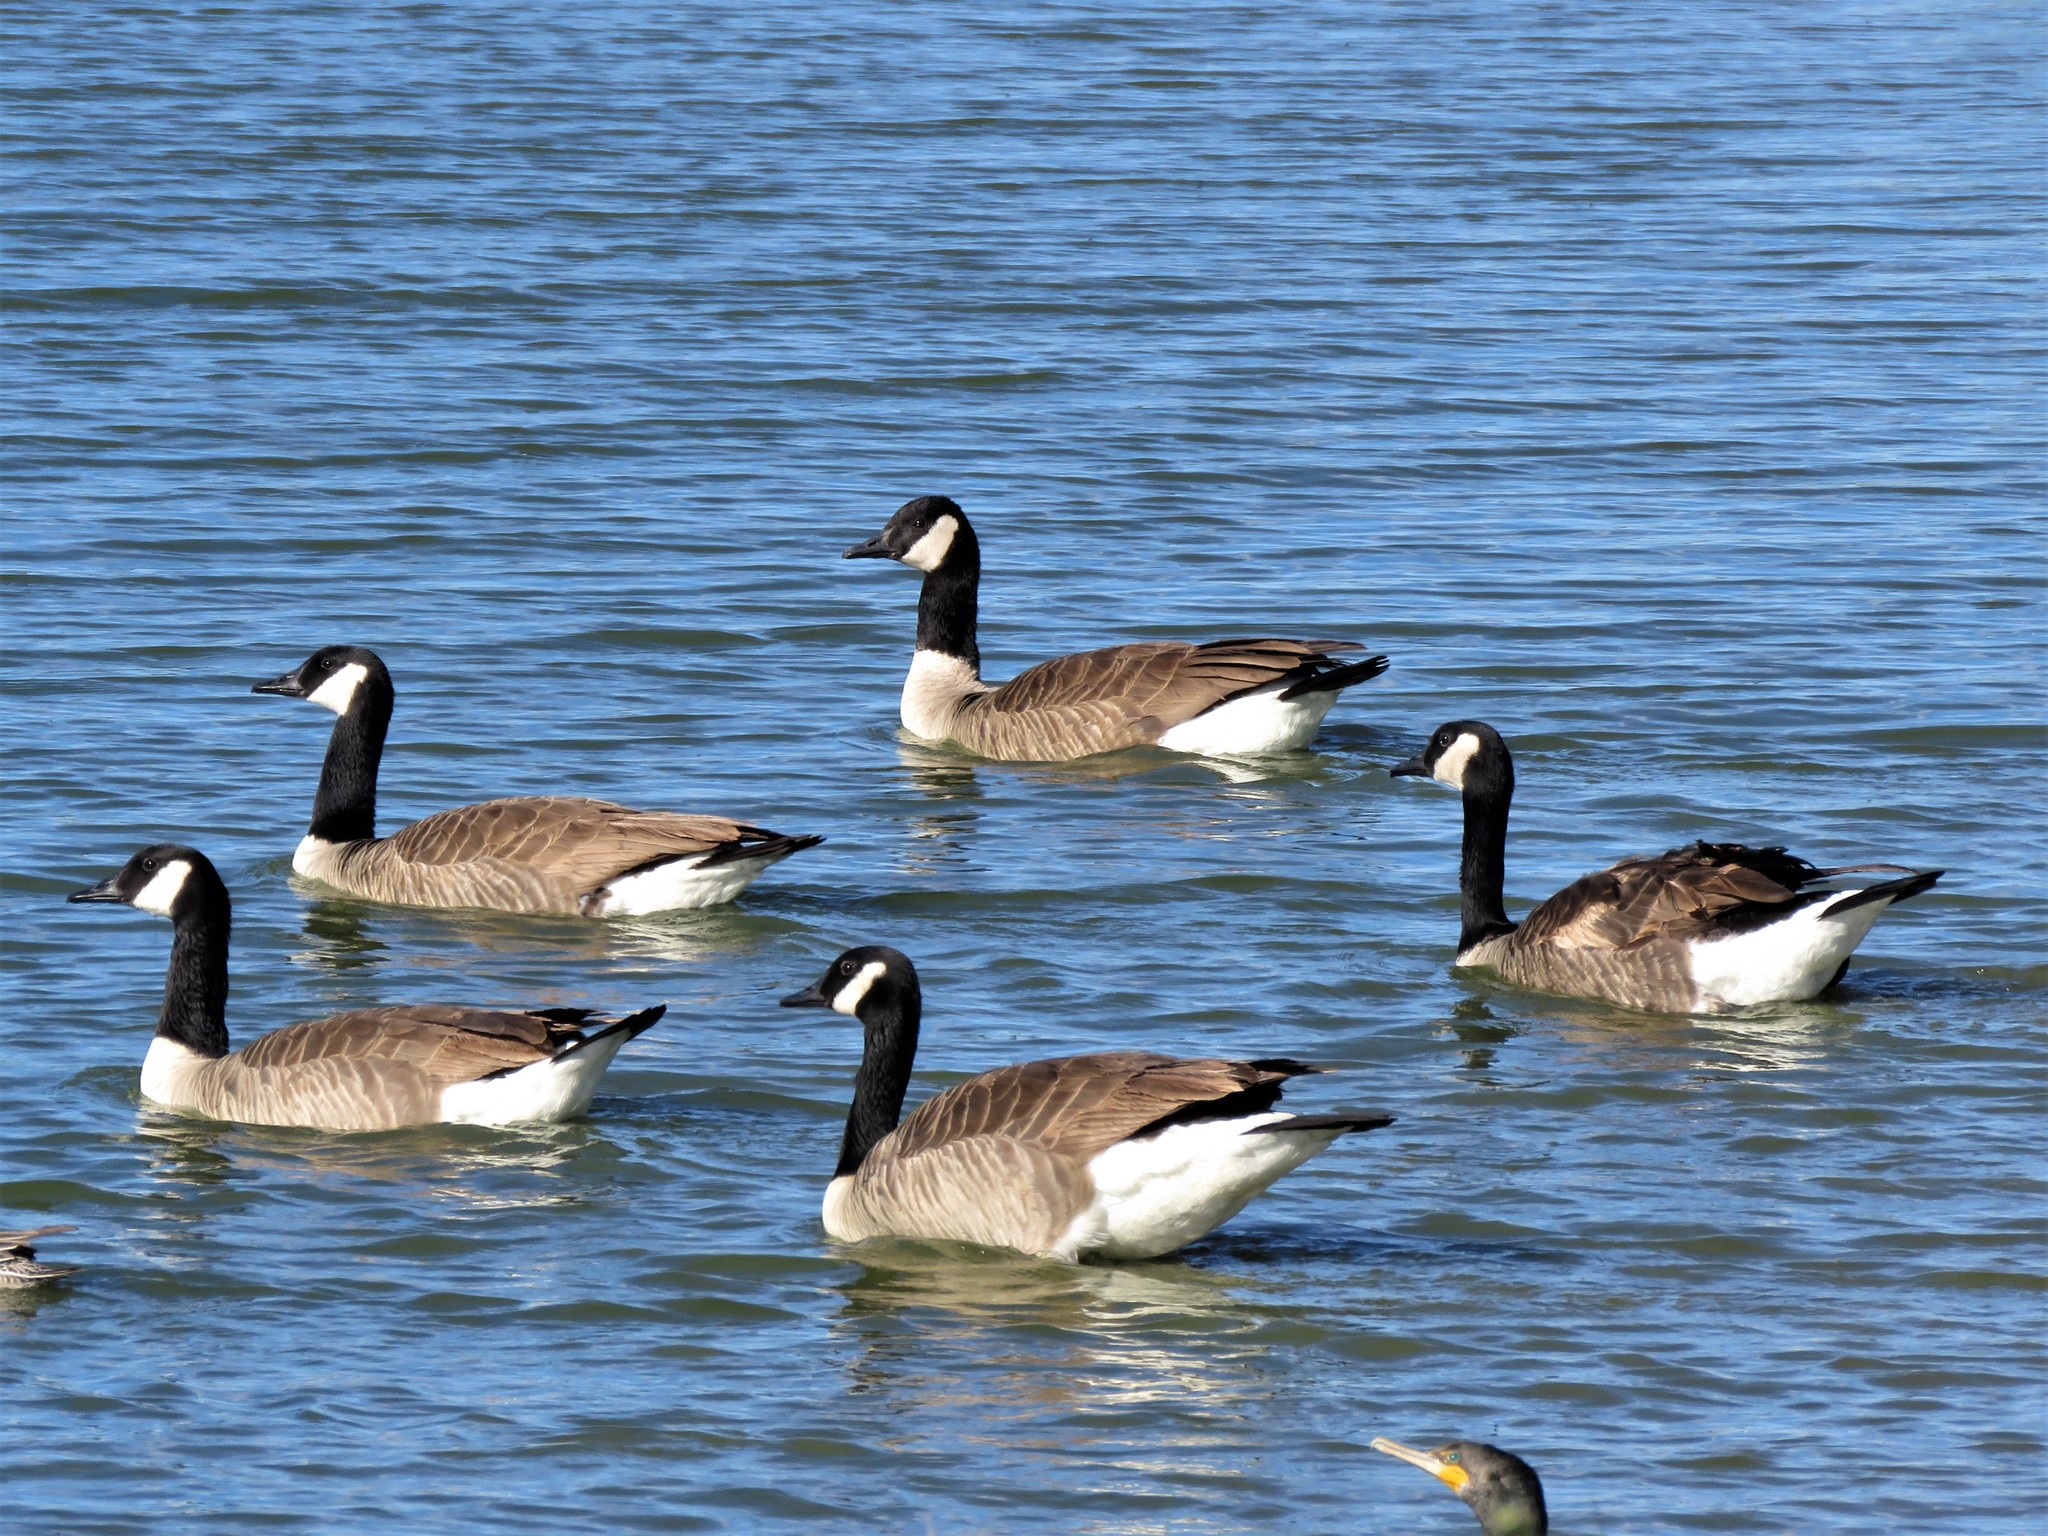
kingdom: Animalia
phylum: Chordata
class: Aves
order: Anseriformes
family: Anatidae
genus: Branta
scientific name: Branta canadensis
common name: Canada goose
